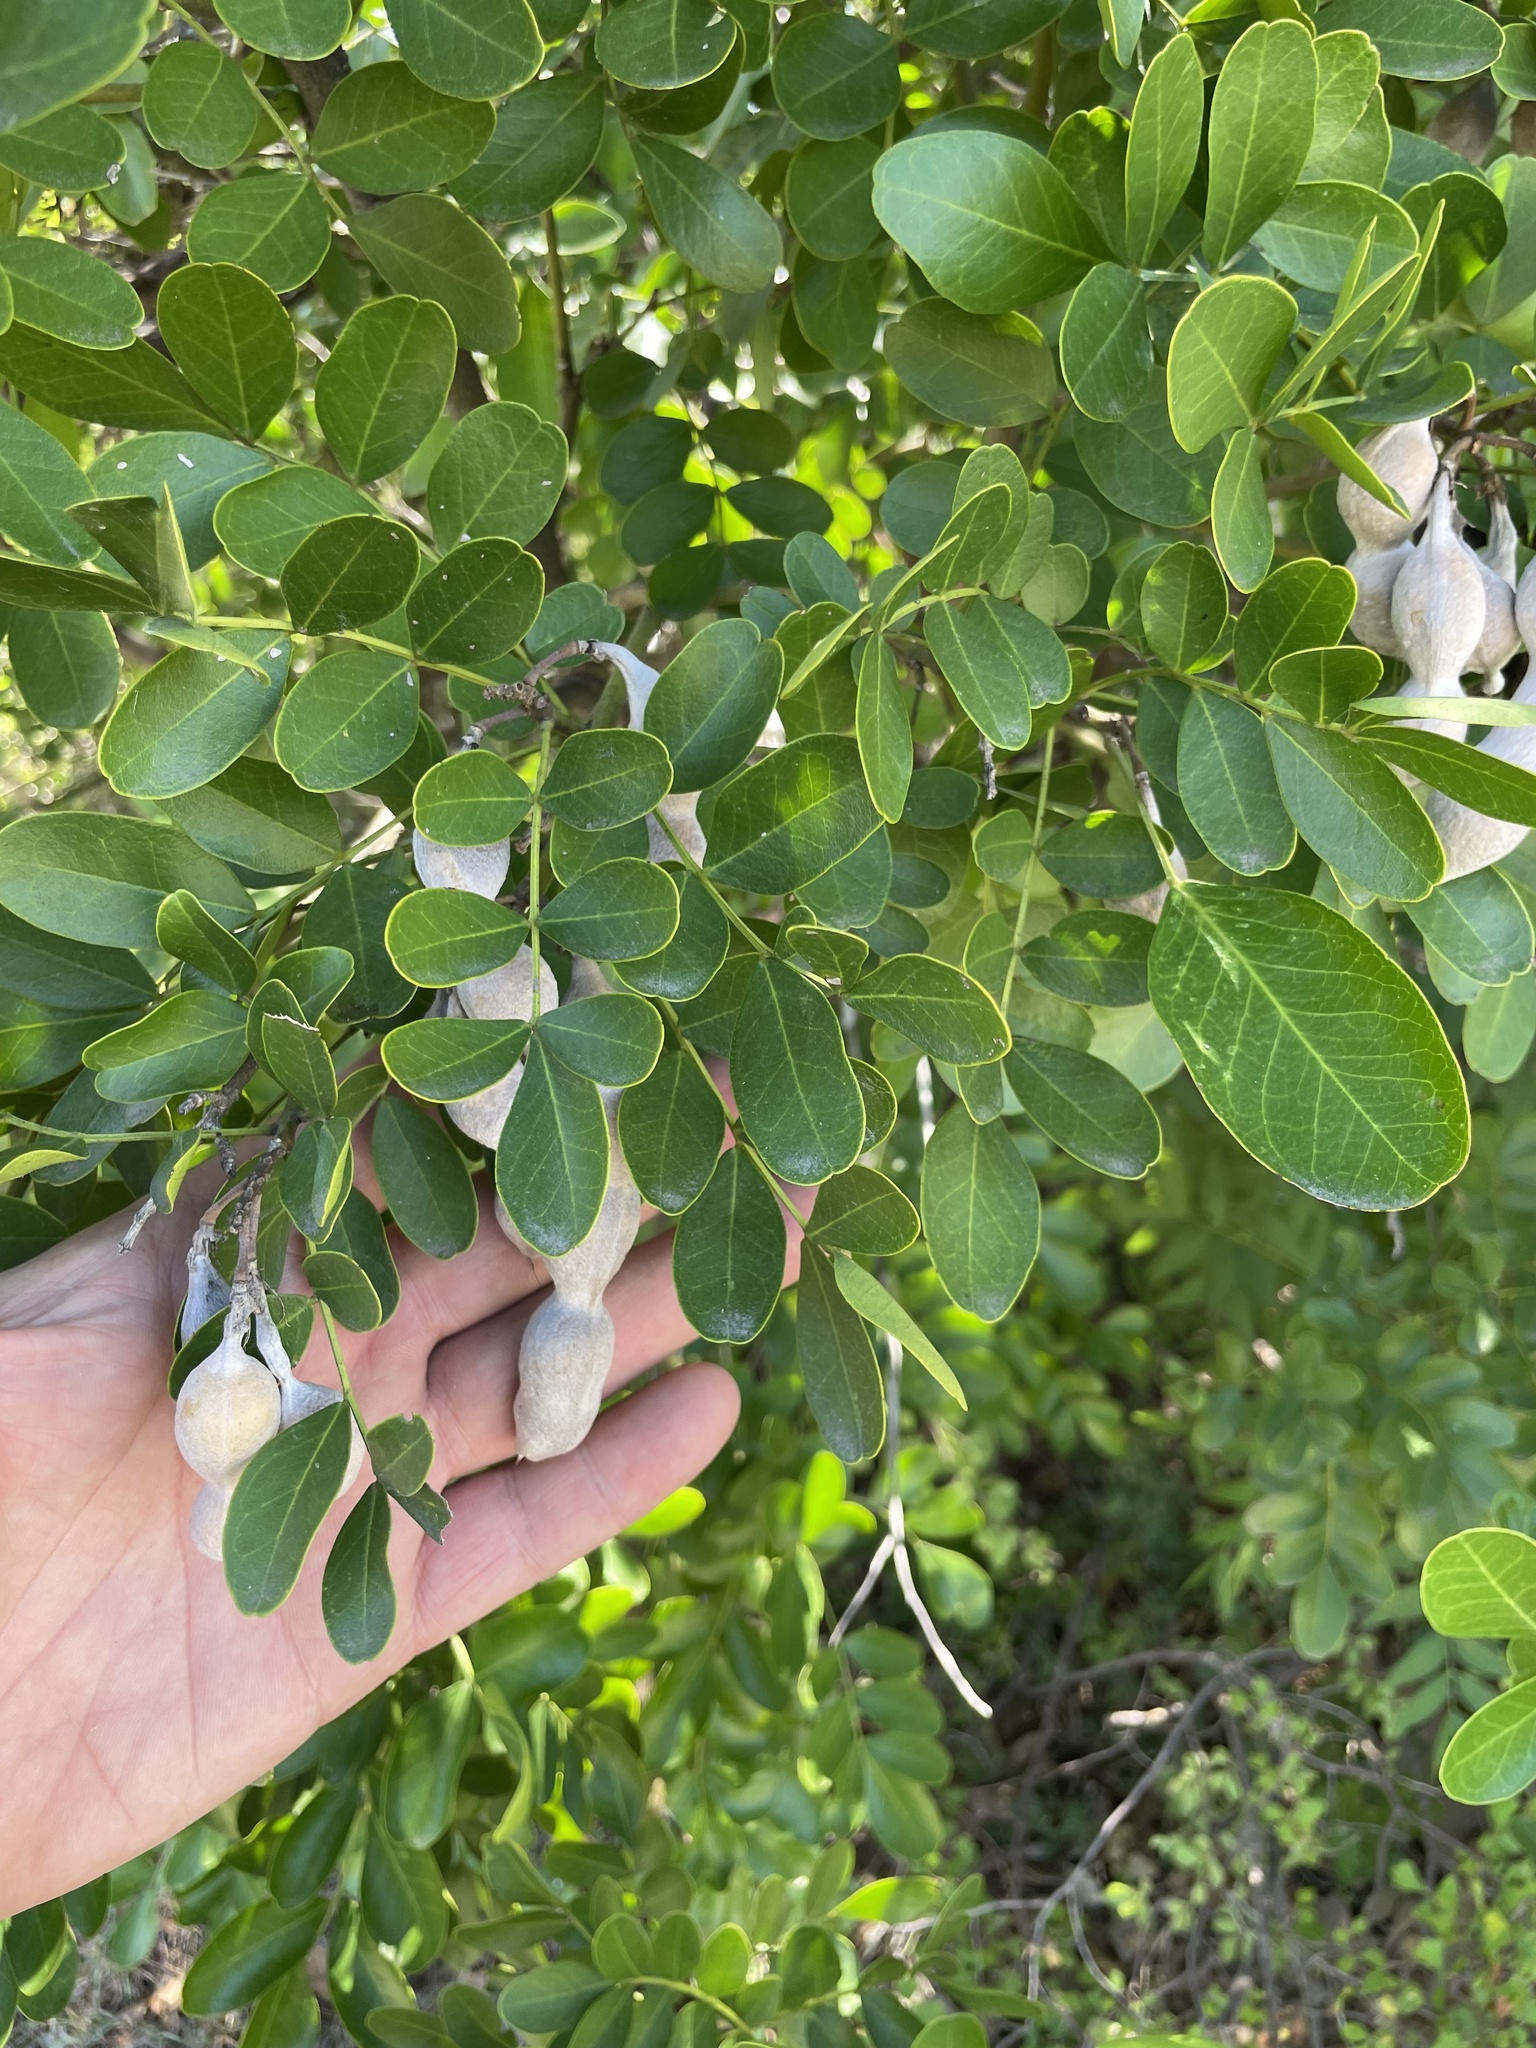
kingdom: Plantae
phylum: Tracheophyta
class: Magnoliopsida
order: Fabales
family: Fabaceae
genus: Dermatophyllum
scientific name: Dermatophyllum secundiflorum
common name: Texas-mountain-laurel
